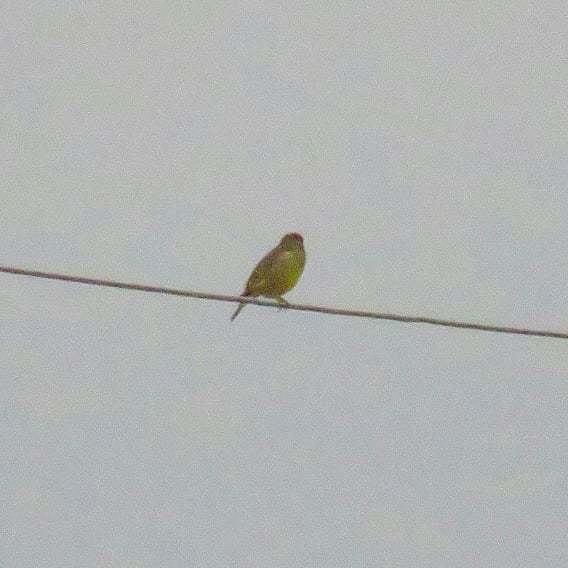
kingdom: Plantae
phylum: Tracheophyta
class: Liliopsida
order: Poales
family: Poaceae
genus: Chloris
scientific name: Chloris chloris
